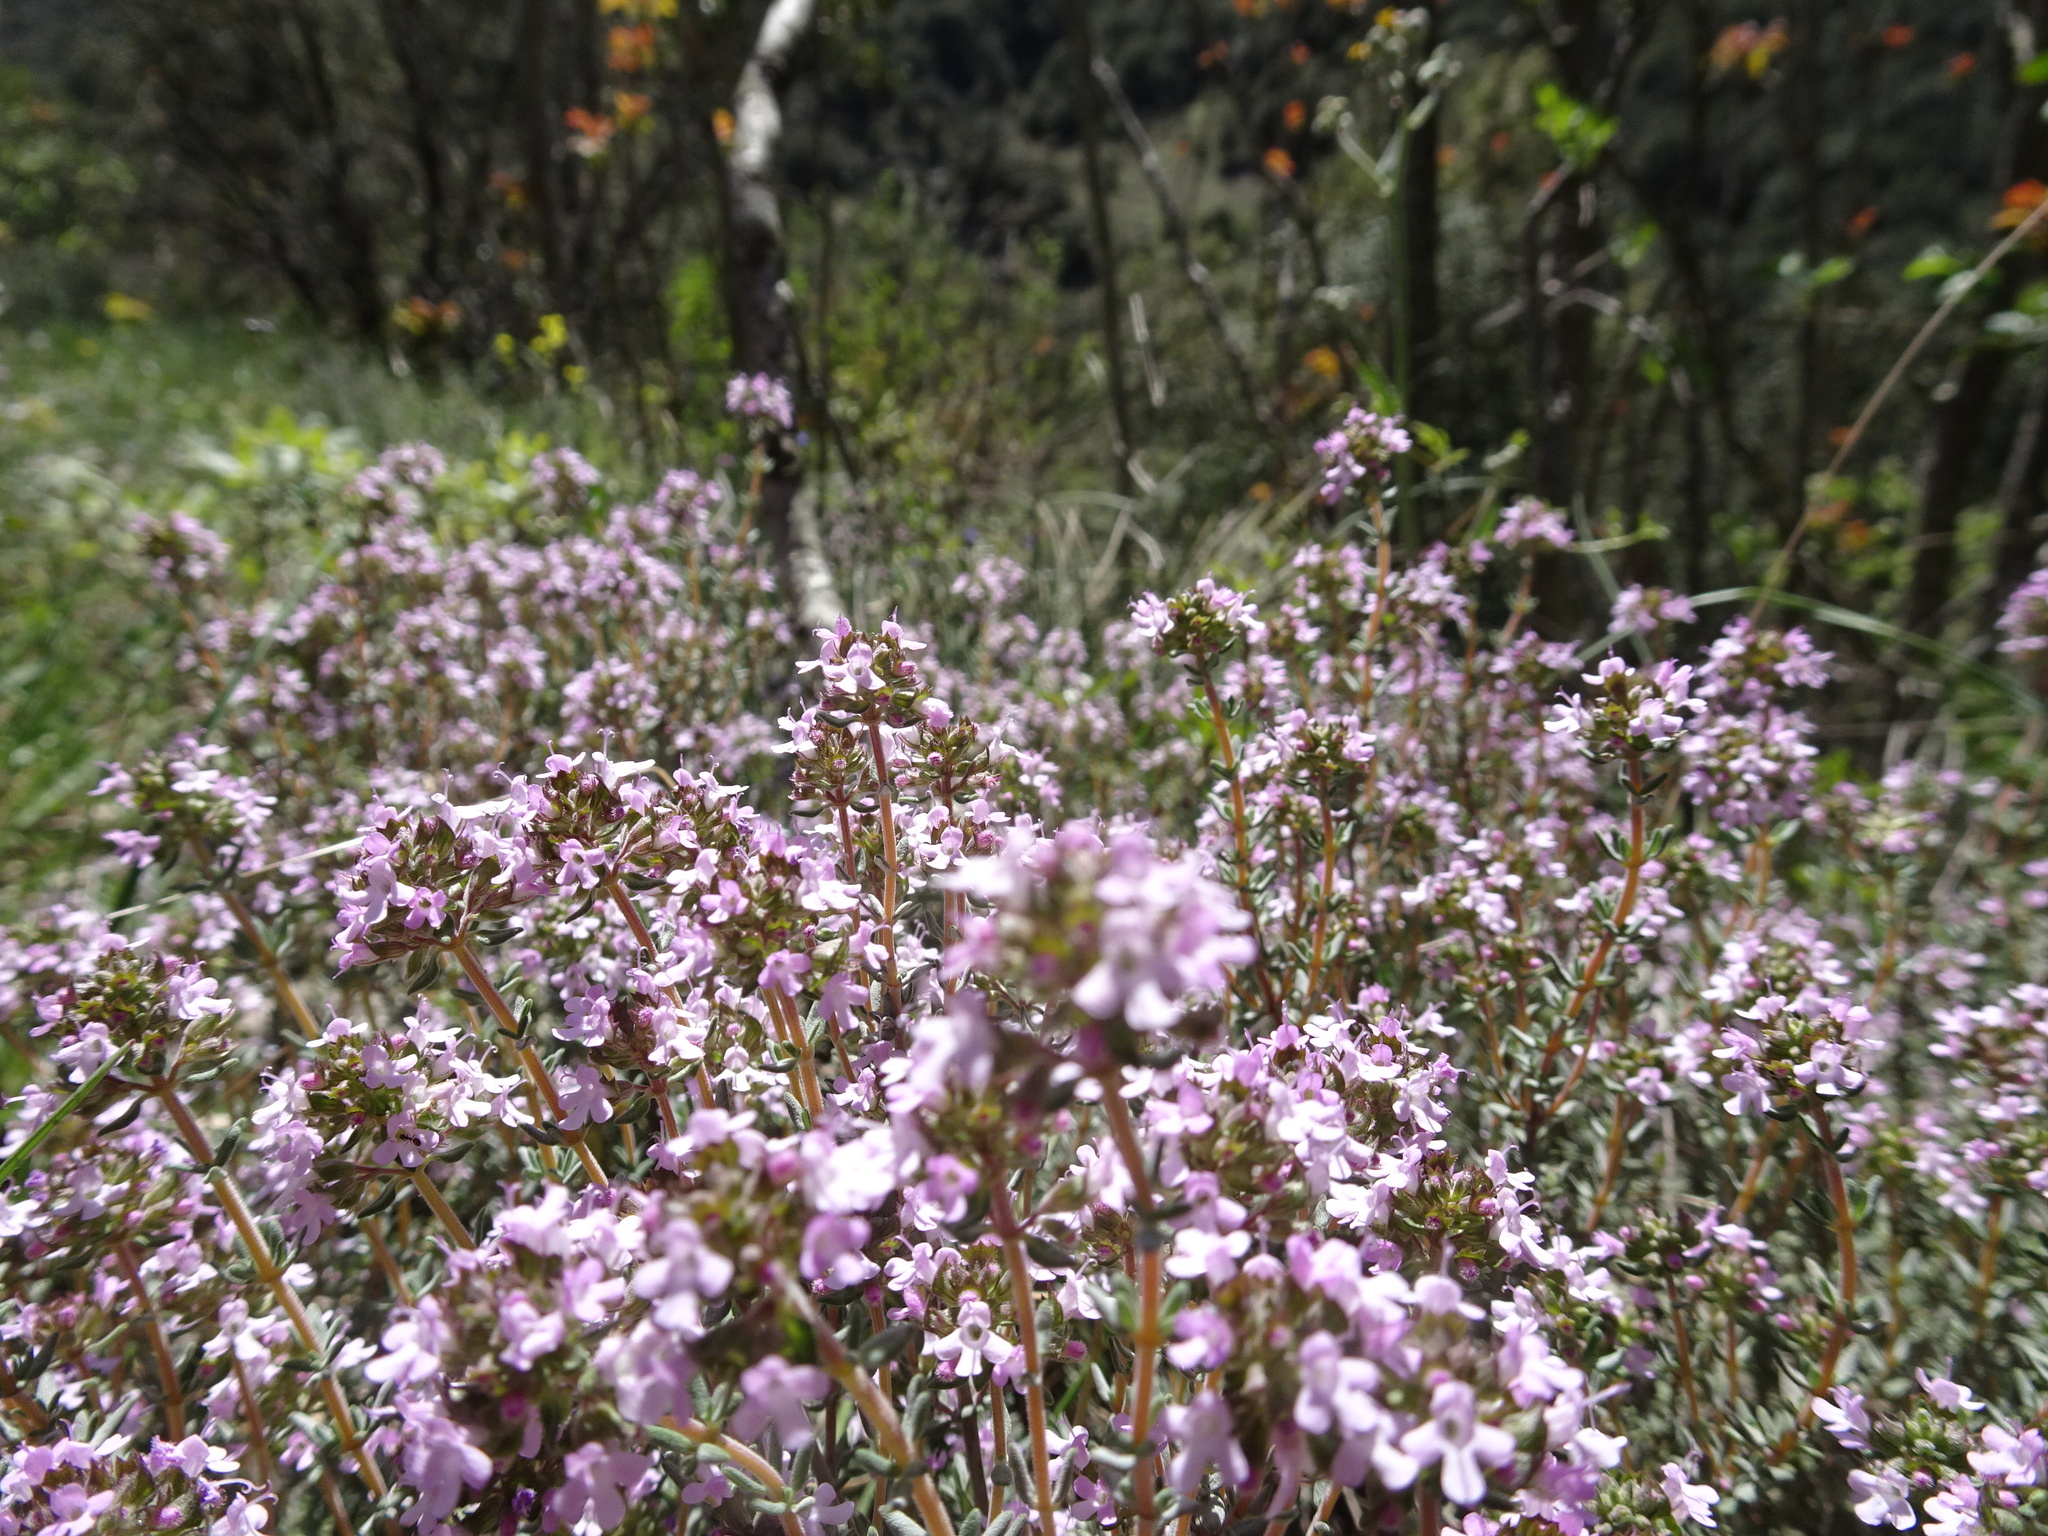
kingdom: Plantae
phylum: Tracheophyta
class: Magnoliopsida
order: Lamiales
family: Lamiaceae
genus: Thymus
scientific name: Thymus vulgaris
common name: Garden thyme
